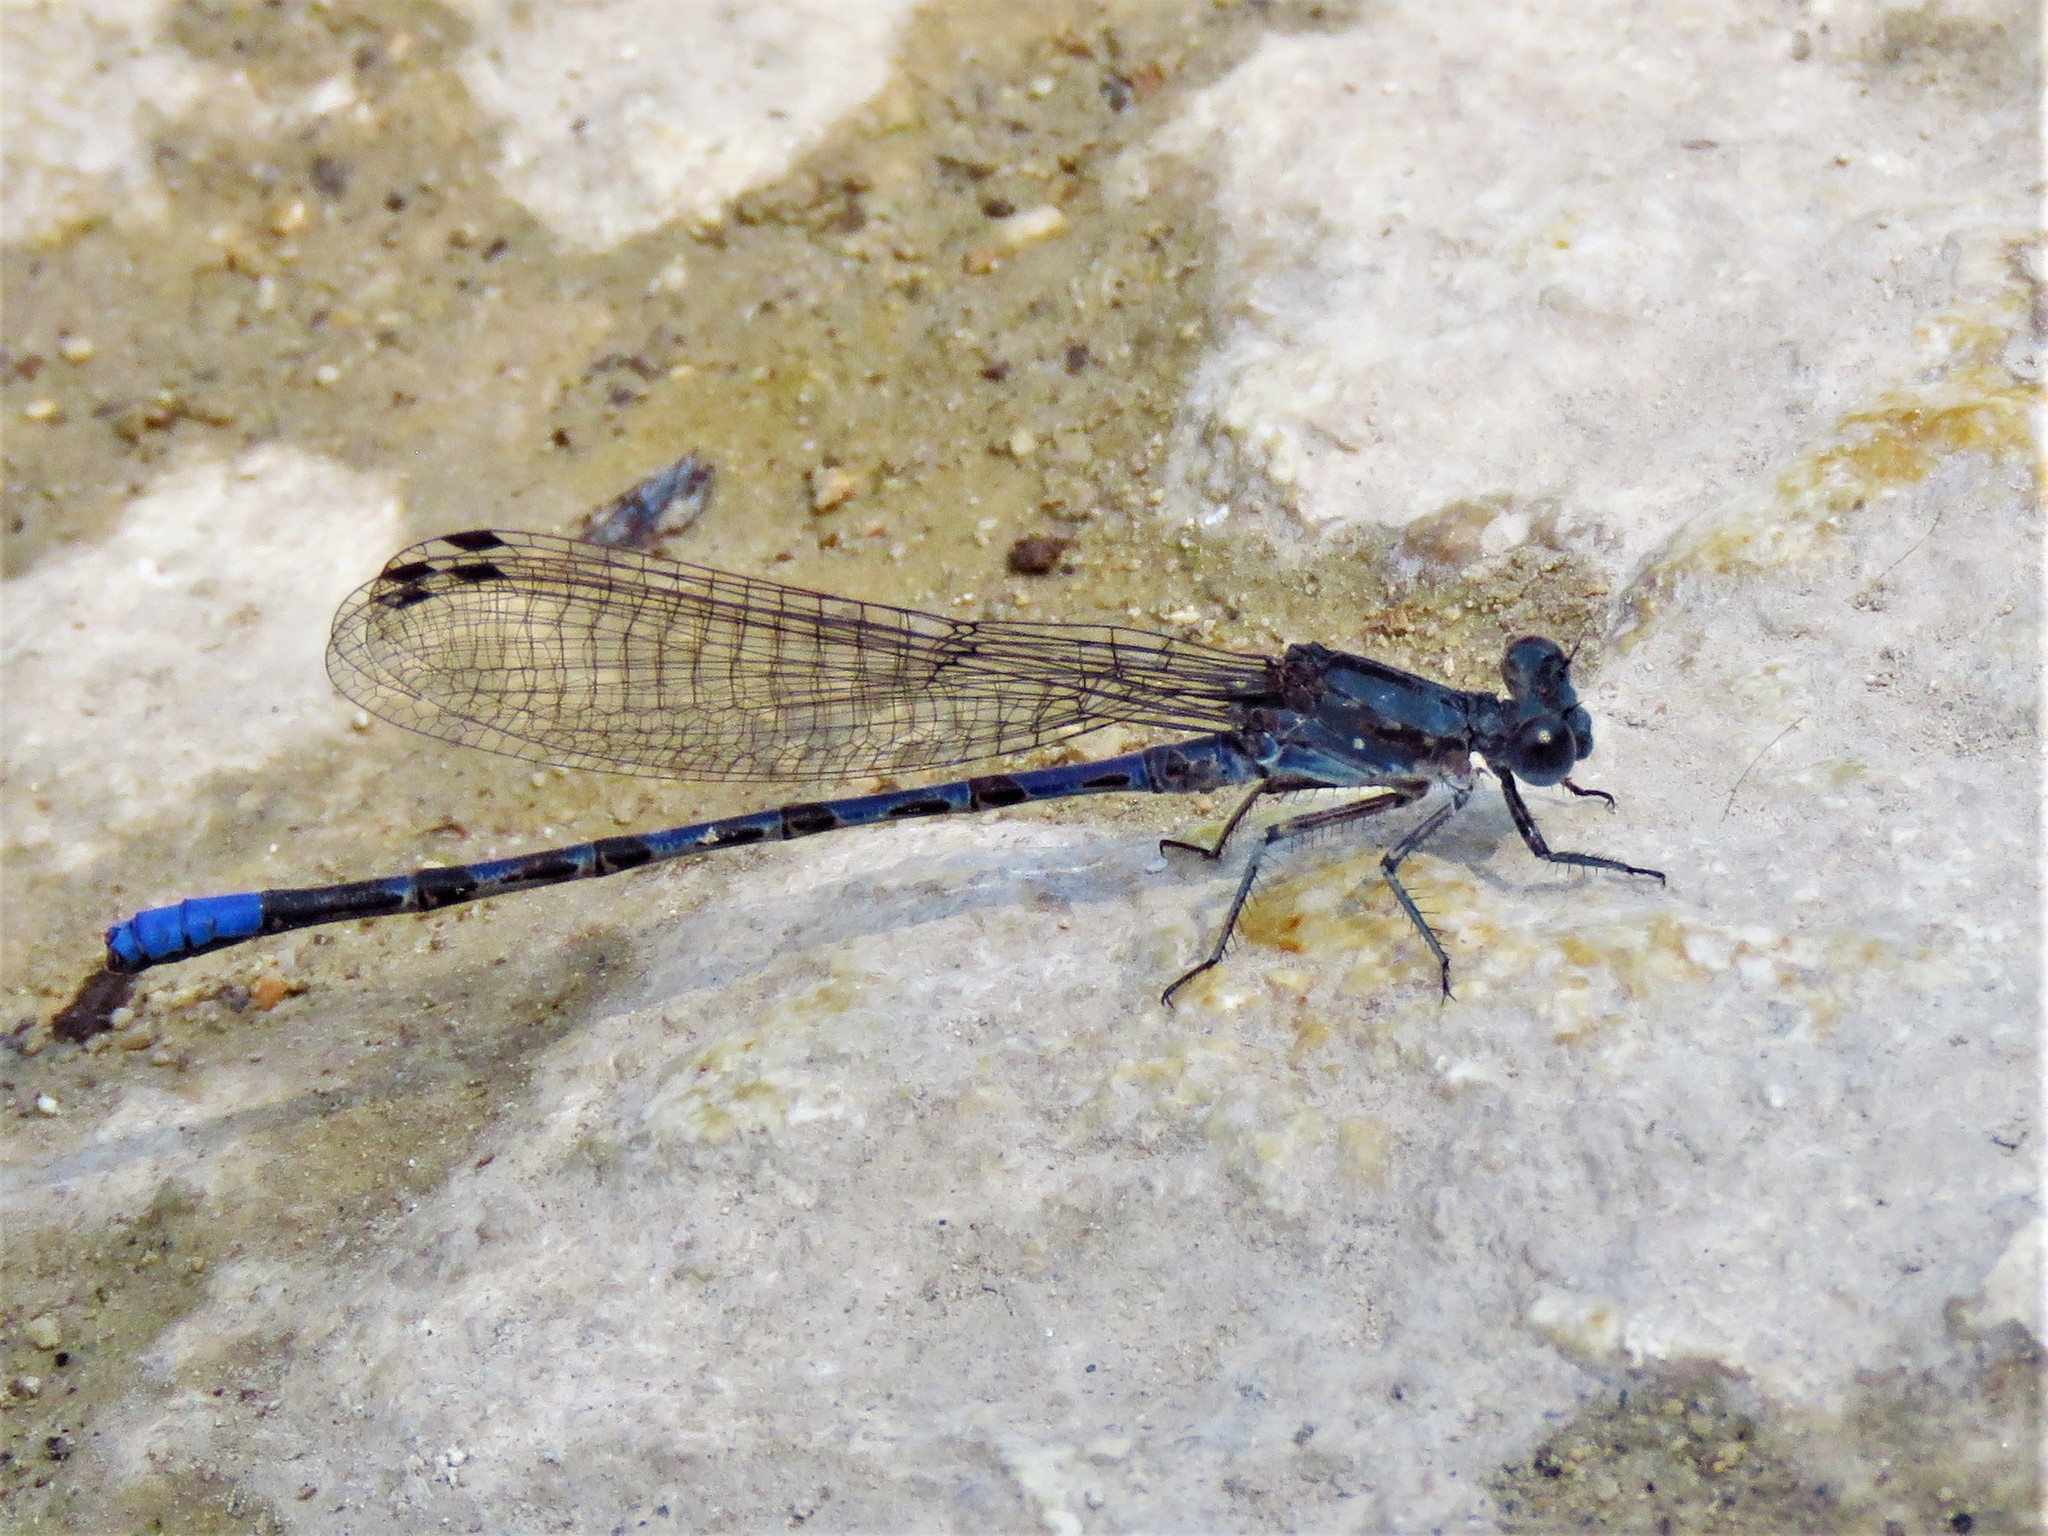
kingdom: Animalia
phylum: Arthropoda
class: Insecta
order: Odonata
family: Coenagrionidae
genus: Argia
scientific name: Argia immunda
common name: Kiowa dancer
